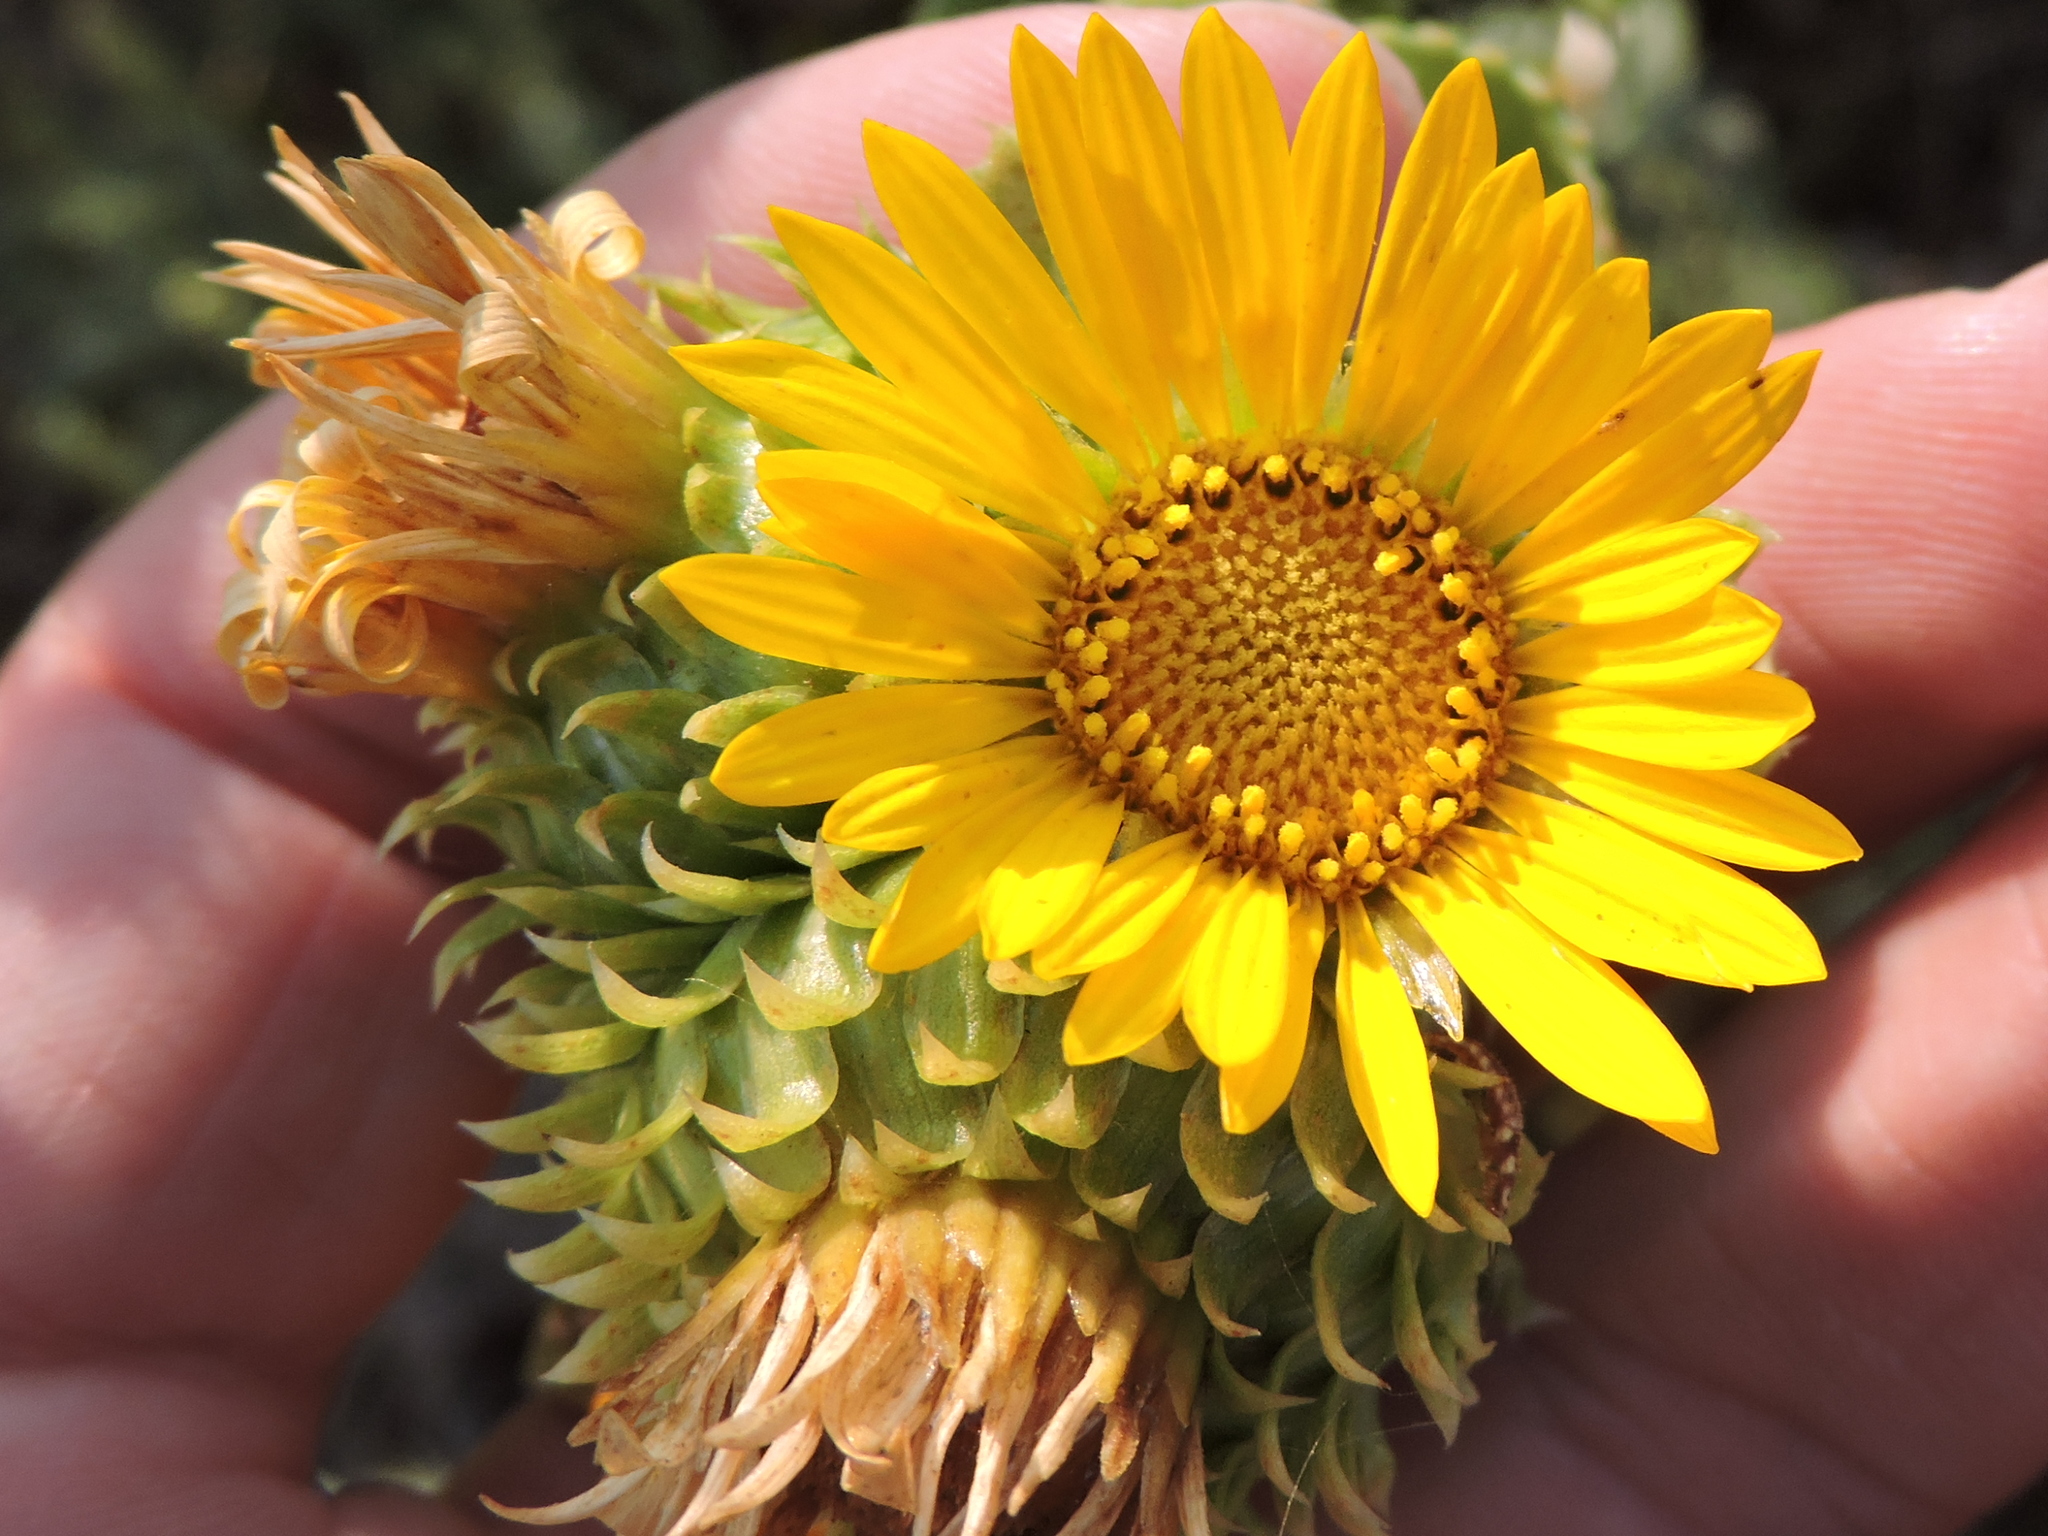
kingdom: Plantae
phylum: Tracheophyta
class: Magnoliopsida
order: Asterales
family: Asteraceae
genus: Grindelia
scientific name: Grindelia ciliata
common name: Goldenweed
